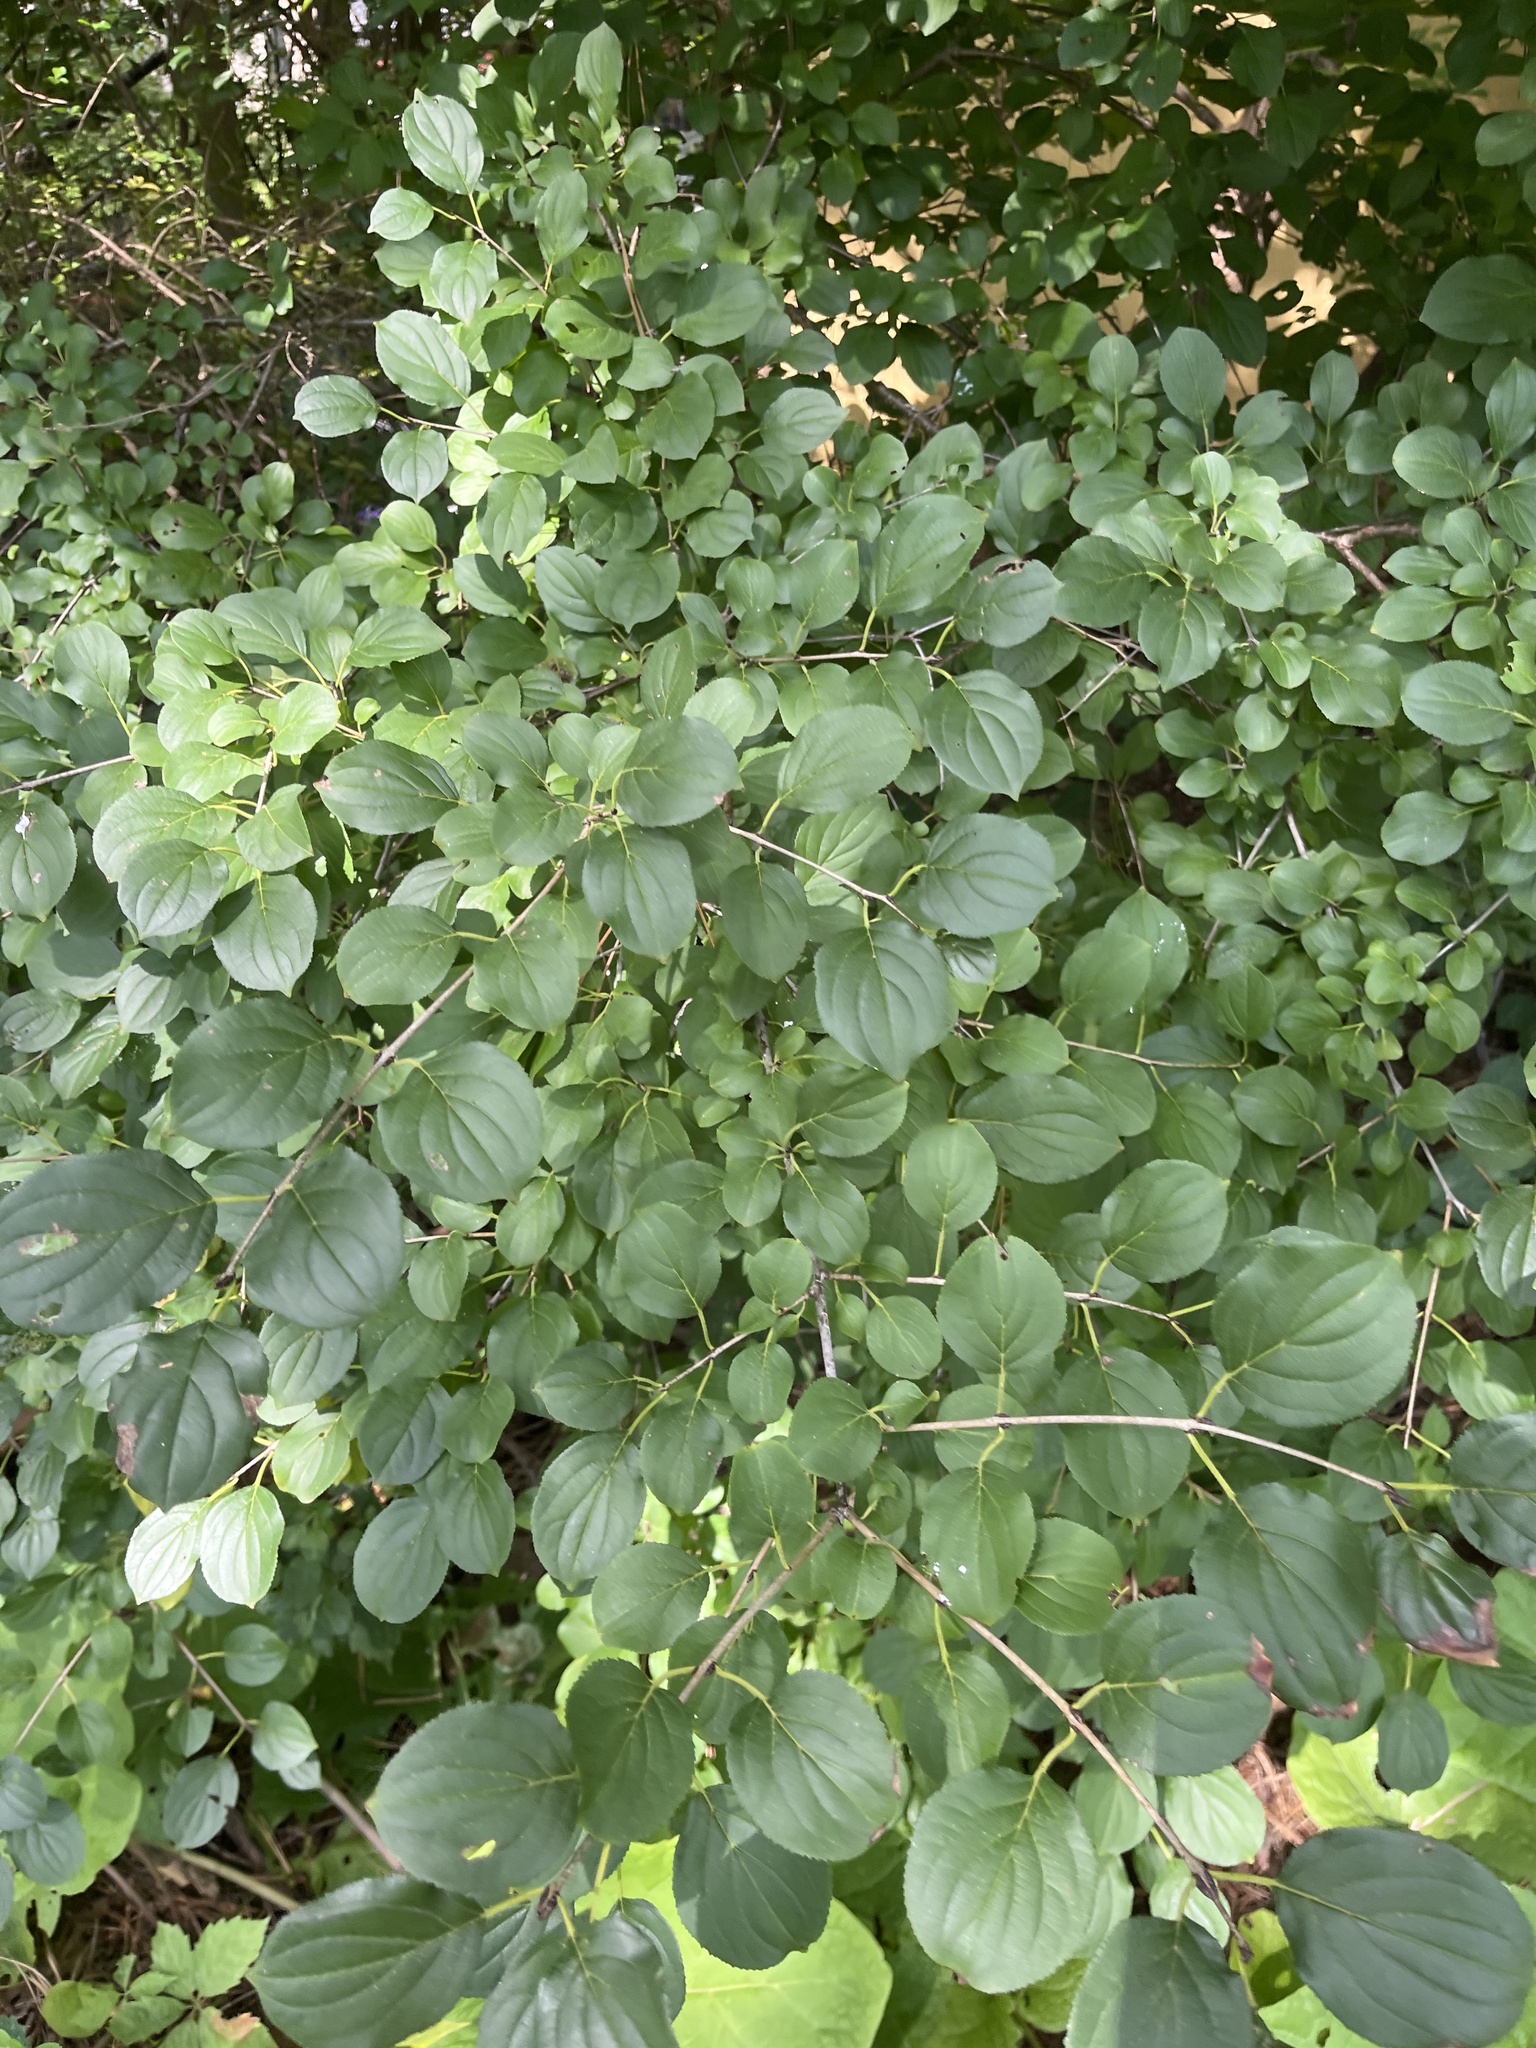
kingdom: Plantae
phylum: Tracheophyta
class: Magnoliopsida
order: Rosales
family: Rhamnaceae
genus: Rhamnus
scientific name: Rhamnus cathartica
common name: Common buckthorn
